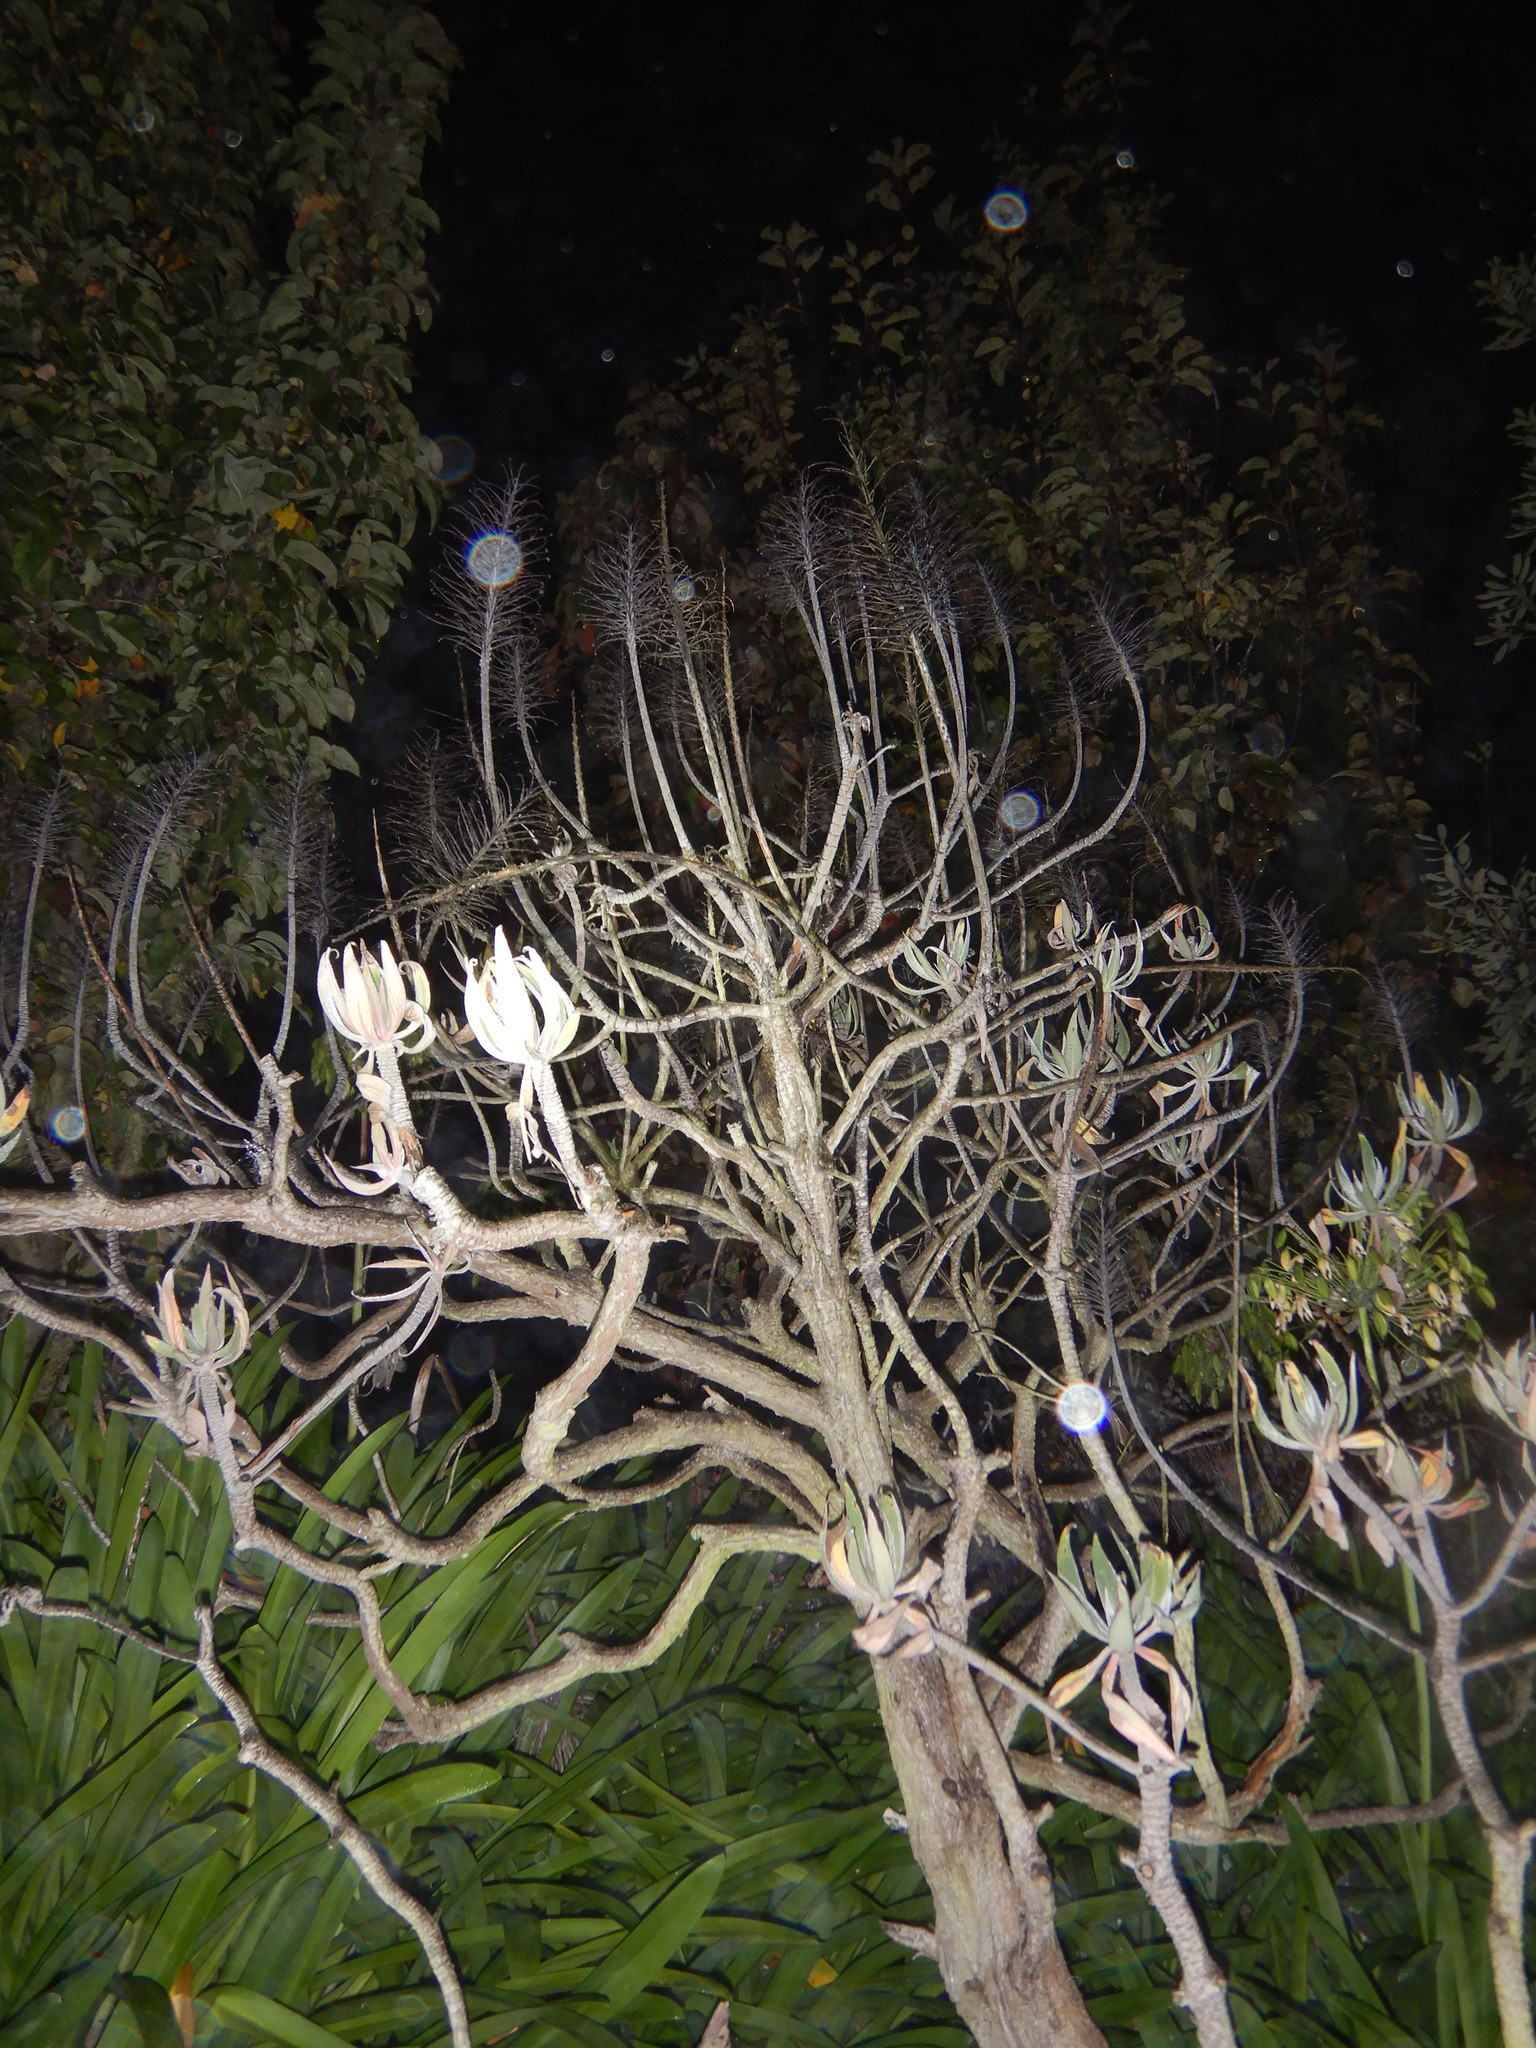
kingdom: Plantae
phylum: Tracheophyta
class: Magnoliopsida
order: Boraginales
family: Boraginaceae
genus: Echium
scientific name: Echium candicans
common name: Pride of madeira
